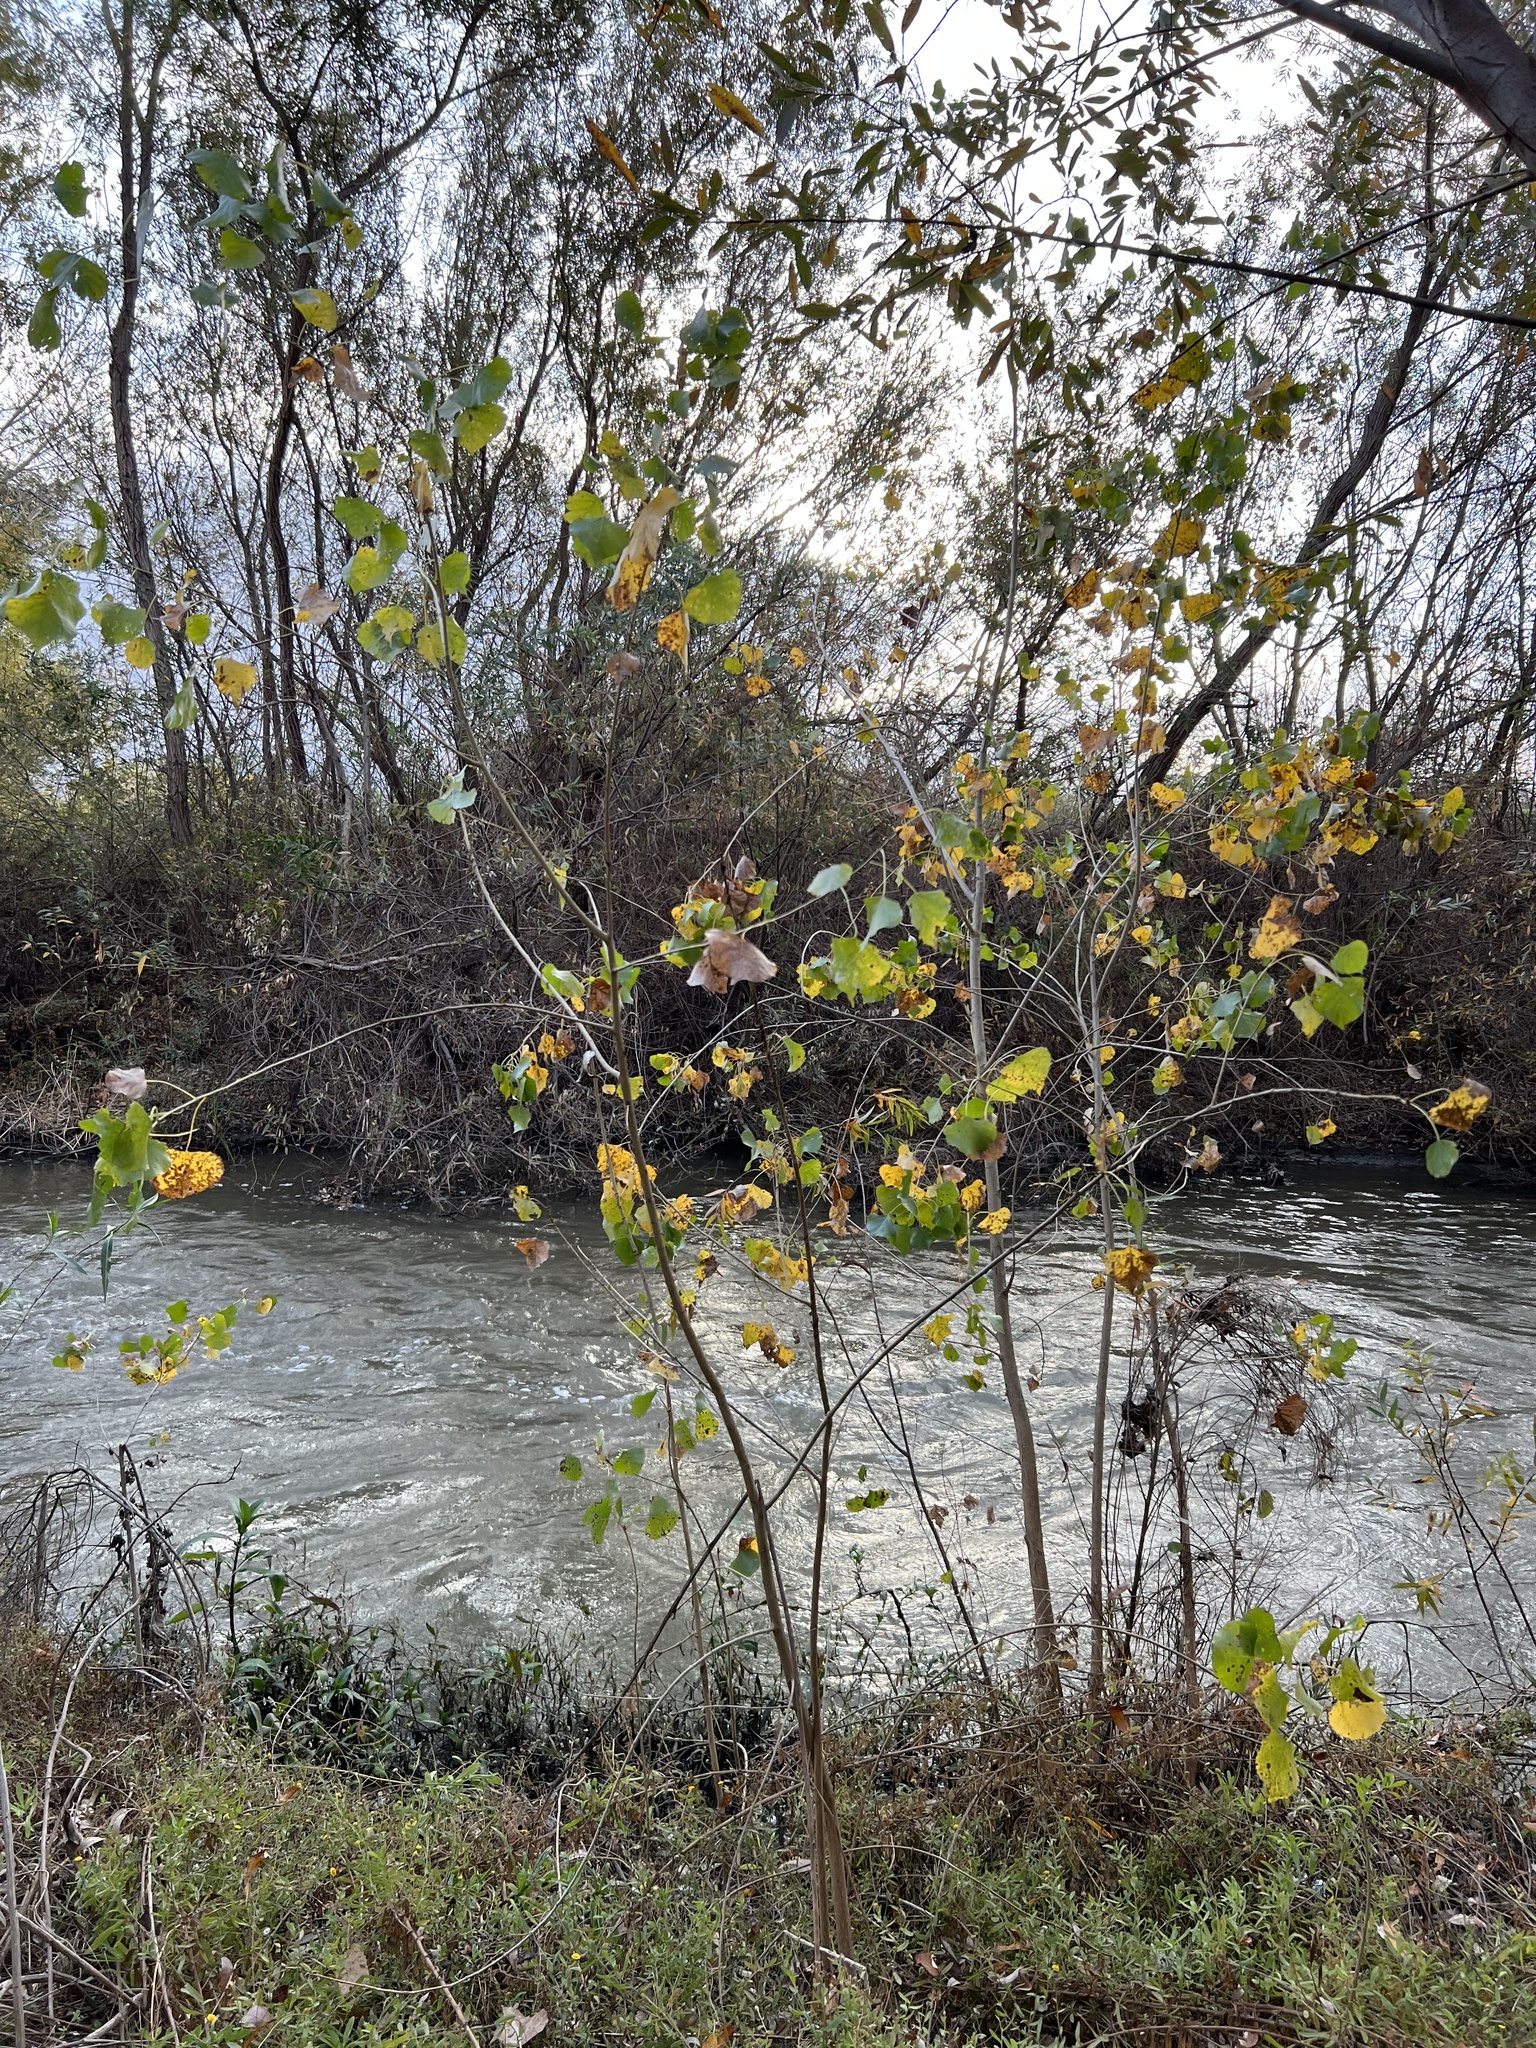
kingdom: Plantae
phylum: Tracheophyta
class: Magnoliopsida
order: Malpighiales
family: Salicaceae
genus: Populus
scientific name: Populus fremontii
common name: Fremont's cottonwood
